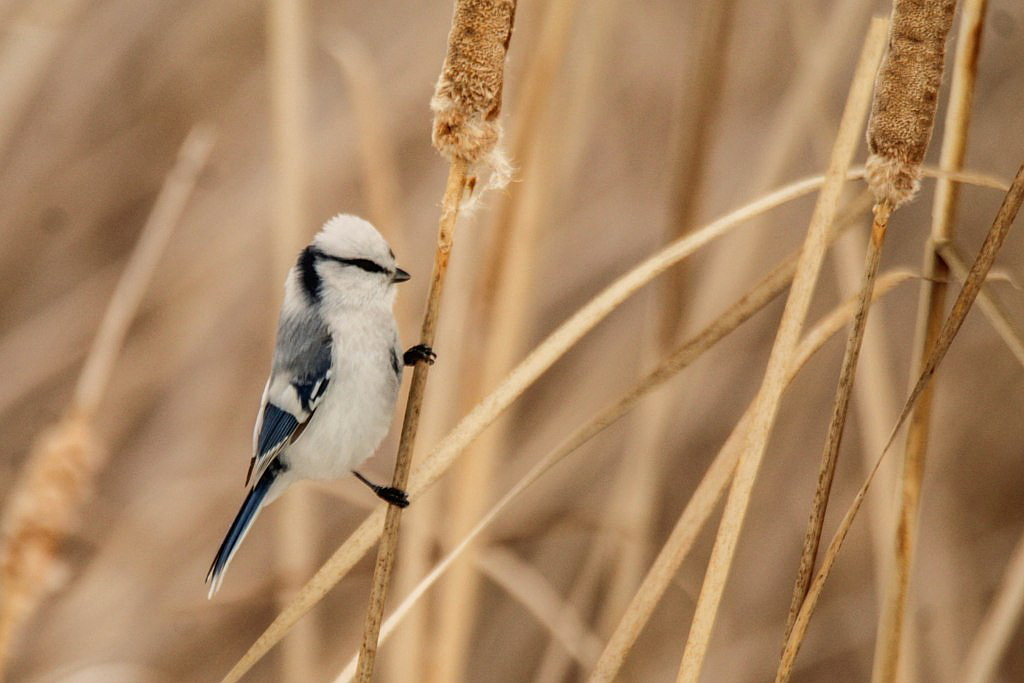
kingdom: Animalia
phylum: Chordata
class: Aves
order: Passeriformes
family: Paridae
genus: Cyanistes
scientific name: Cyanistes cyanus
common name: Azure tit
